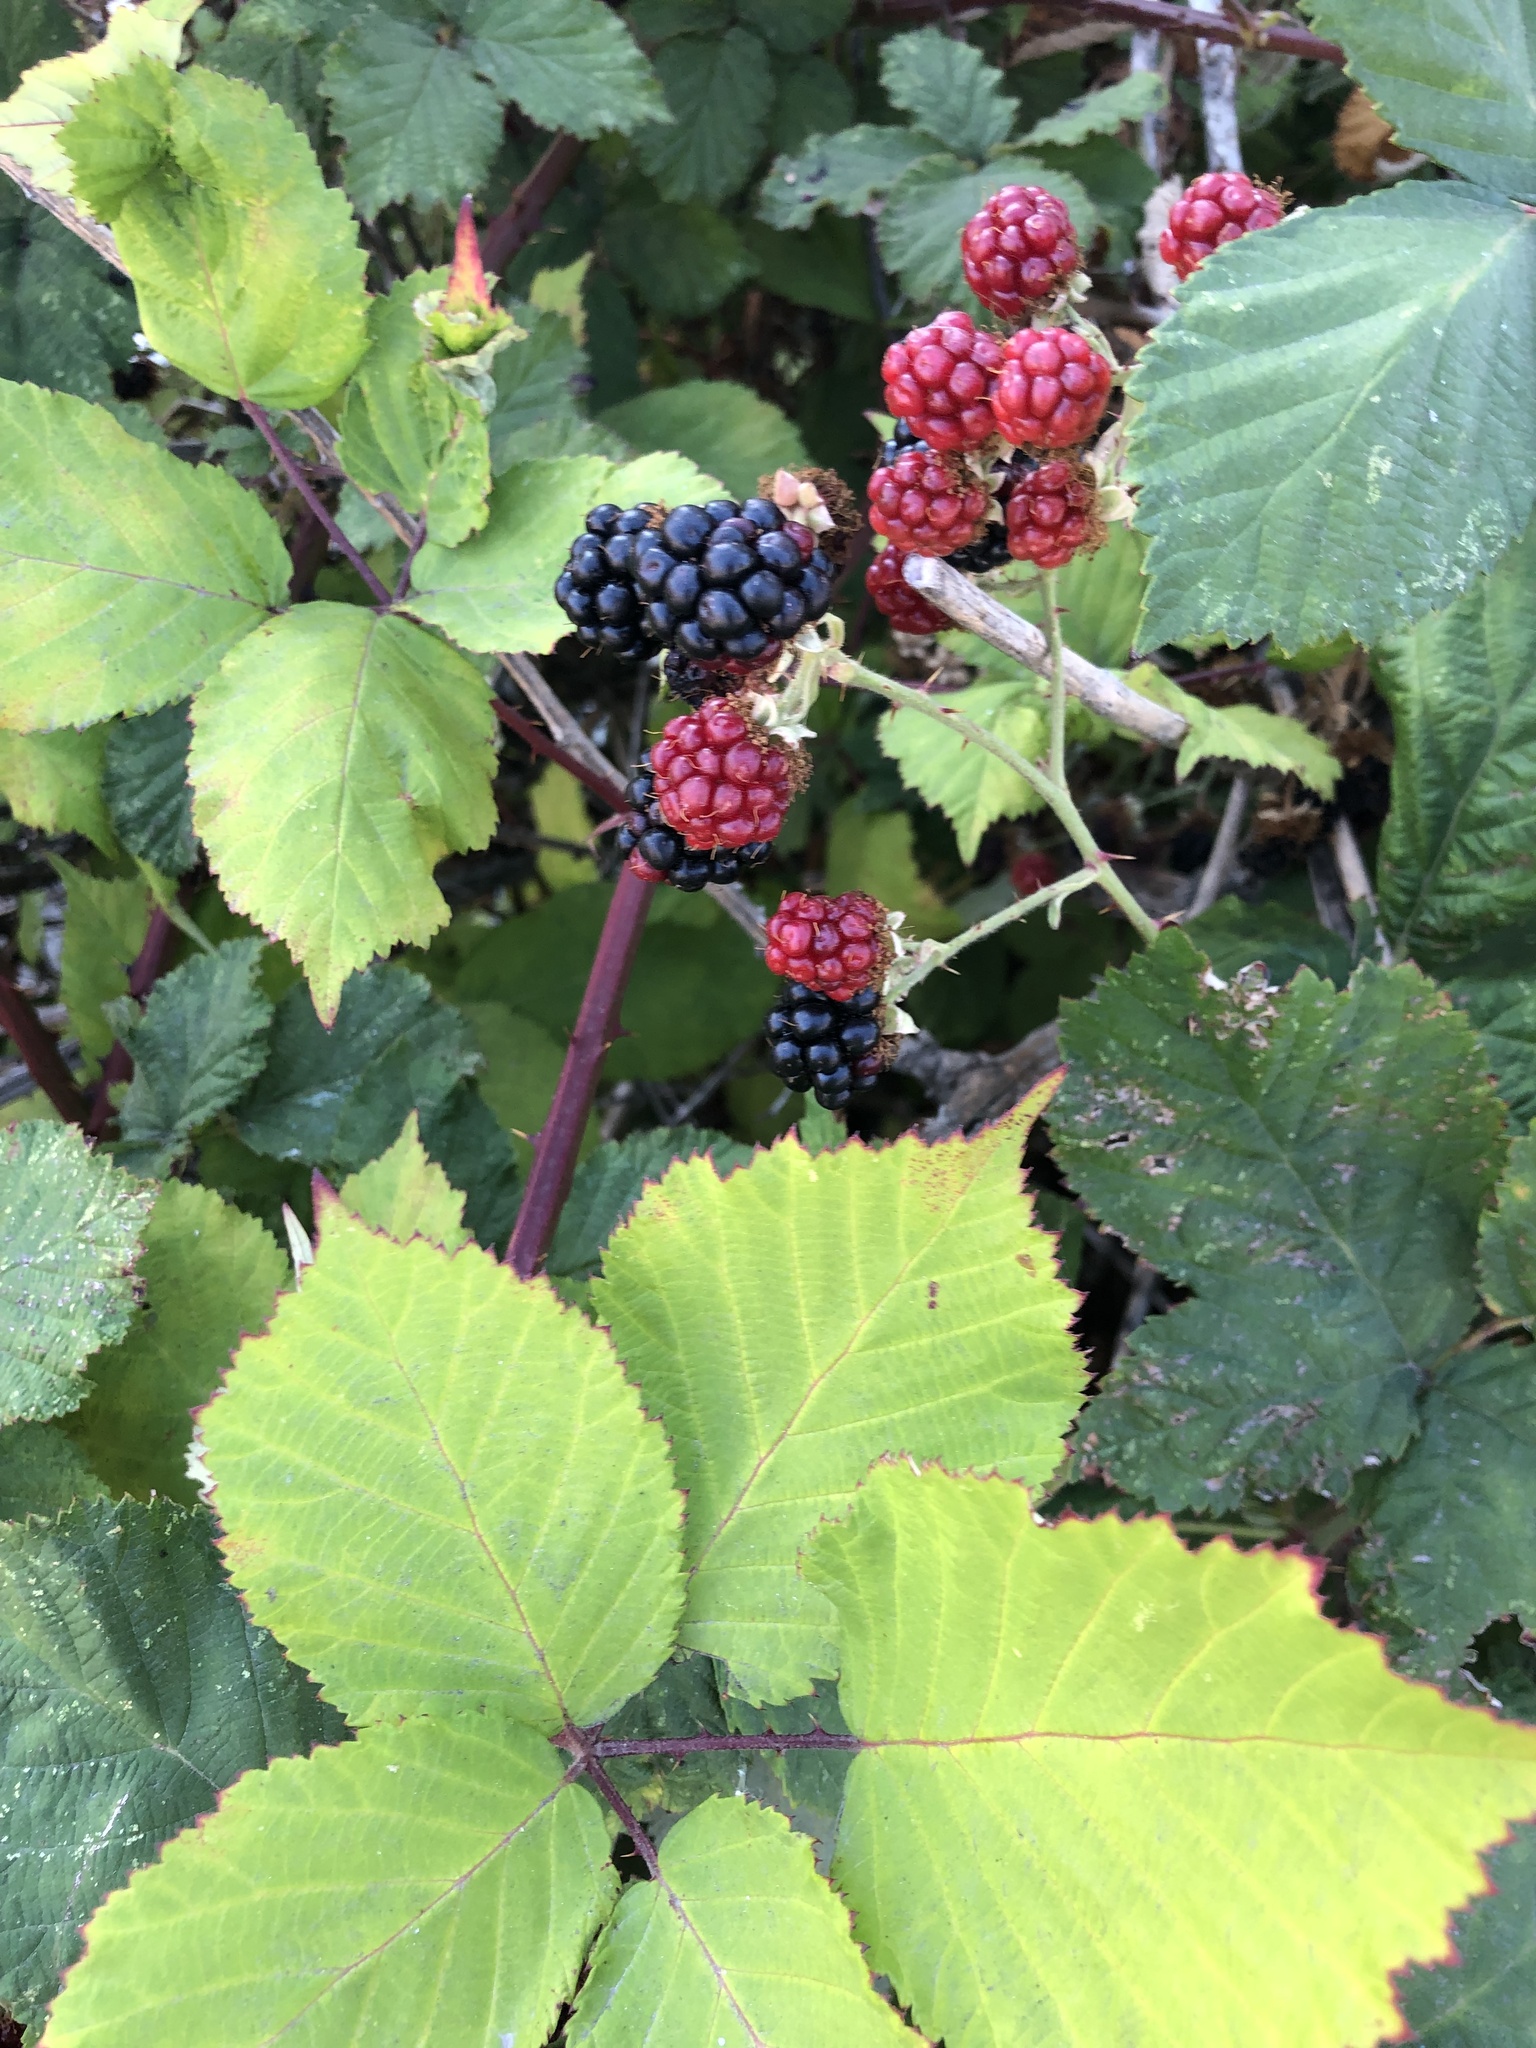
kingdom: Plantae
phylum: Tracheophyta
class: Magnoliopsida
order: Rosales
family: Rosaceae
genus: Rubus
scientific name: Rubus armeniacus
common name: Himalayan blackberry
